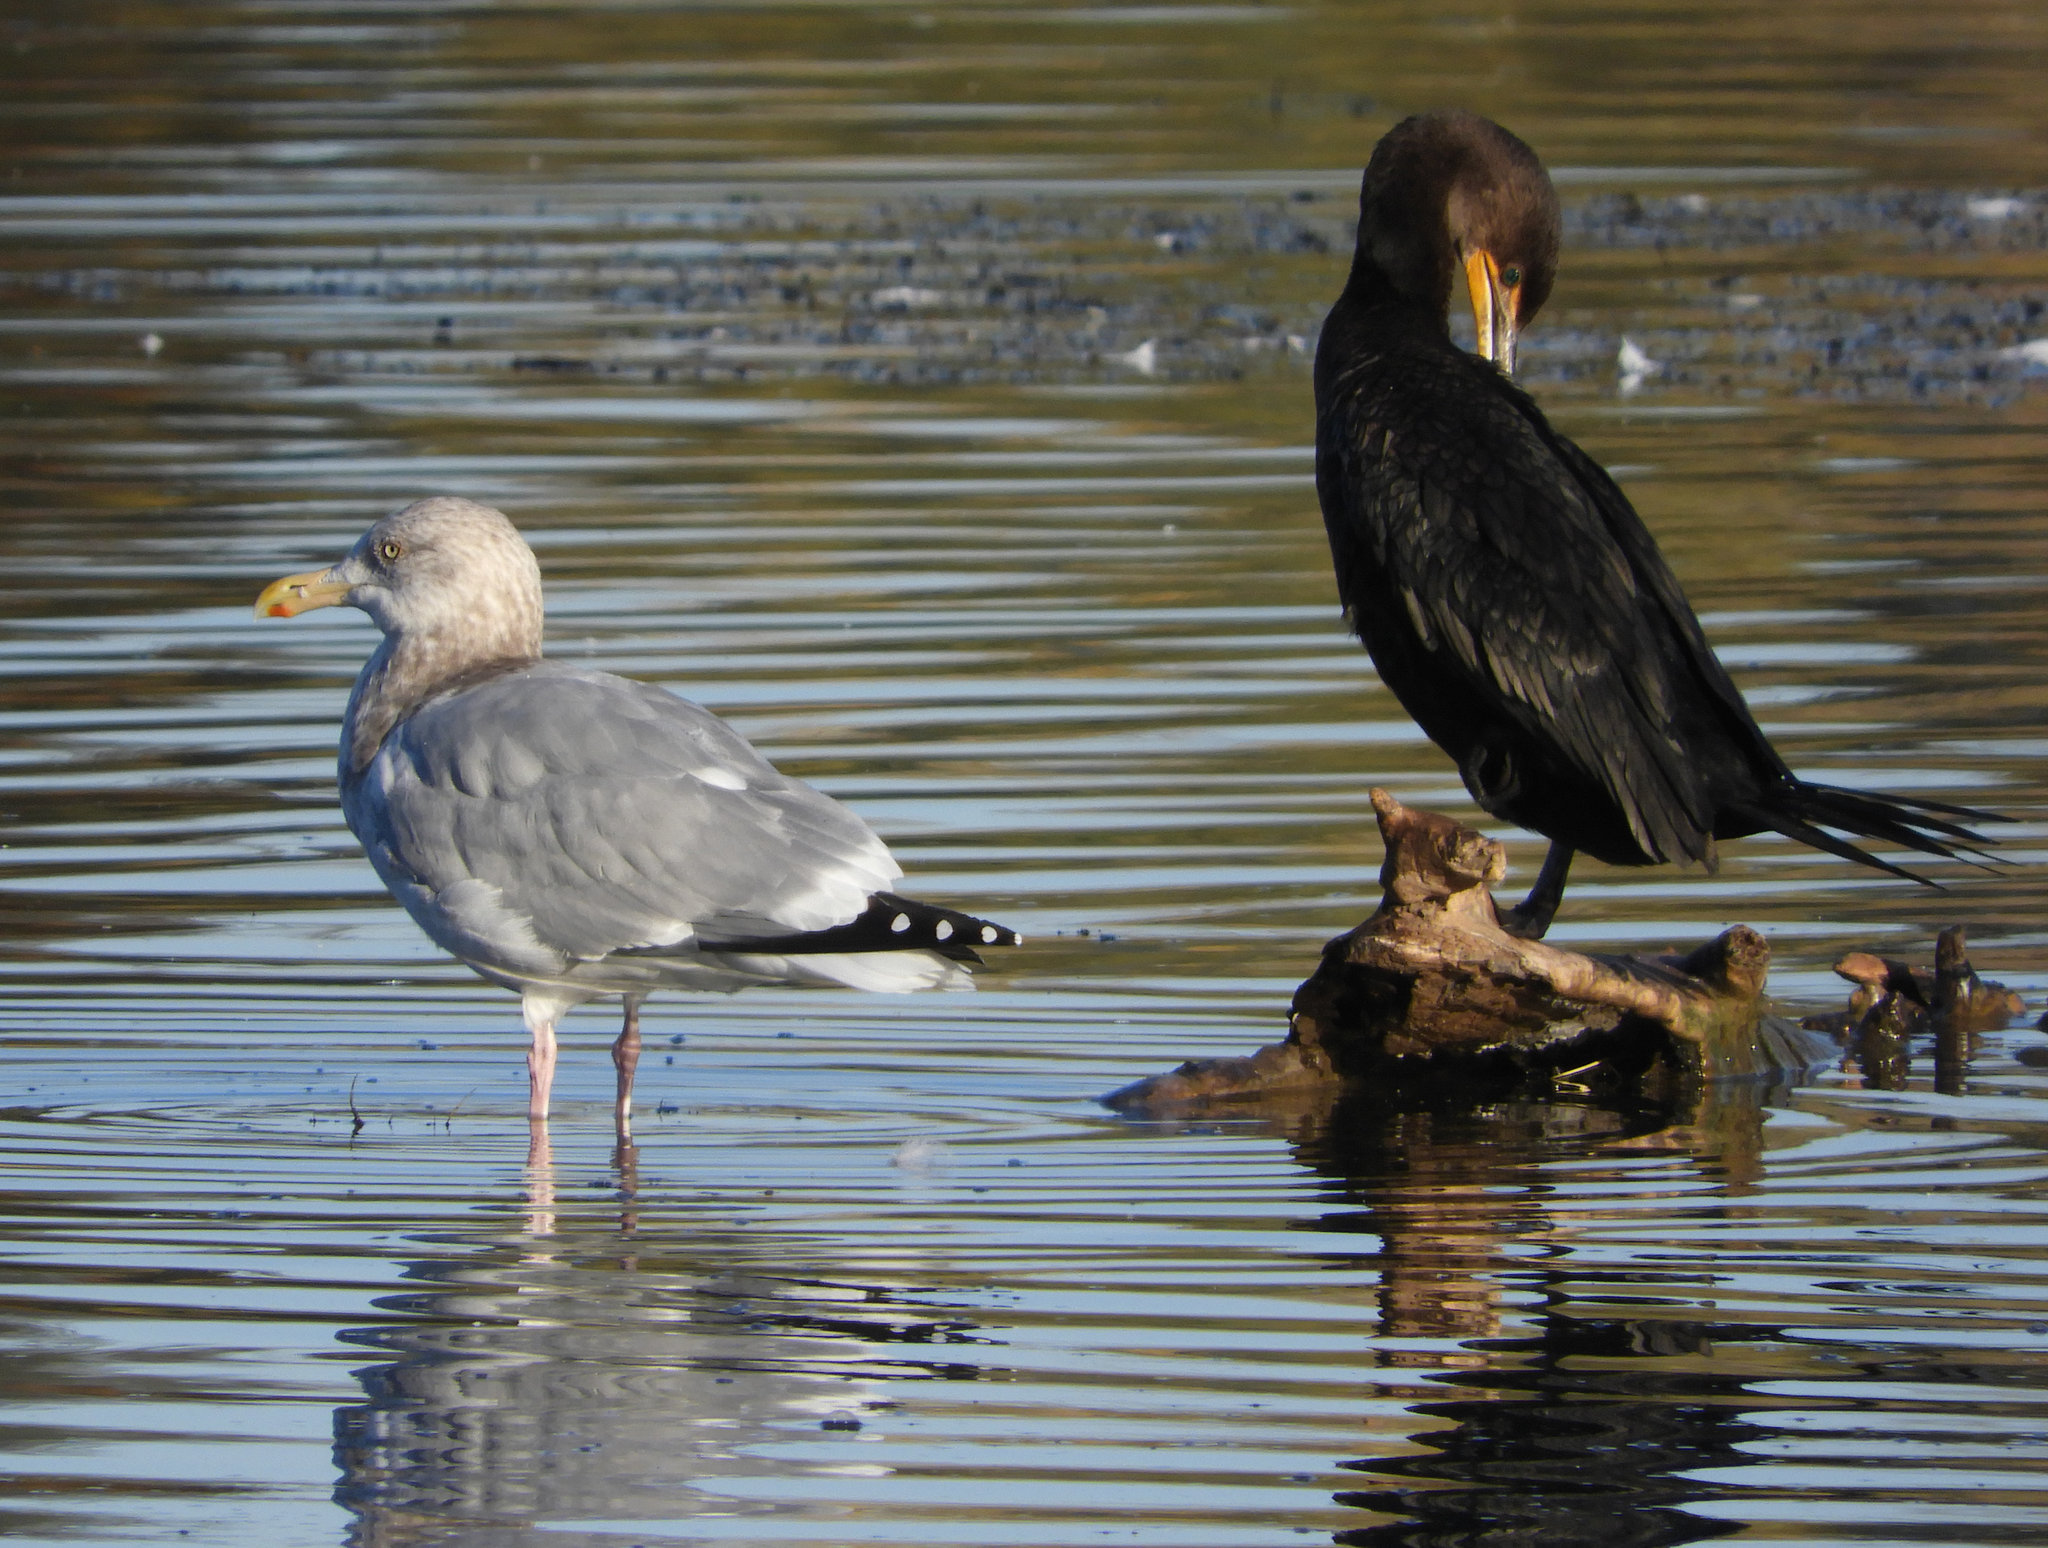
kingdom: Animalia
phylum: Chordata
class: Aves
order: Charadriiformes
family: Laridae
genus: Larus
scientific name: Larus argentatus
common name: Herring gull
